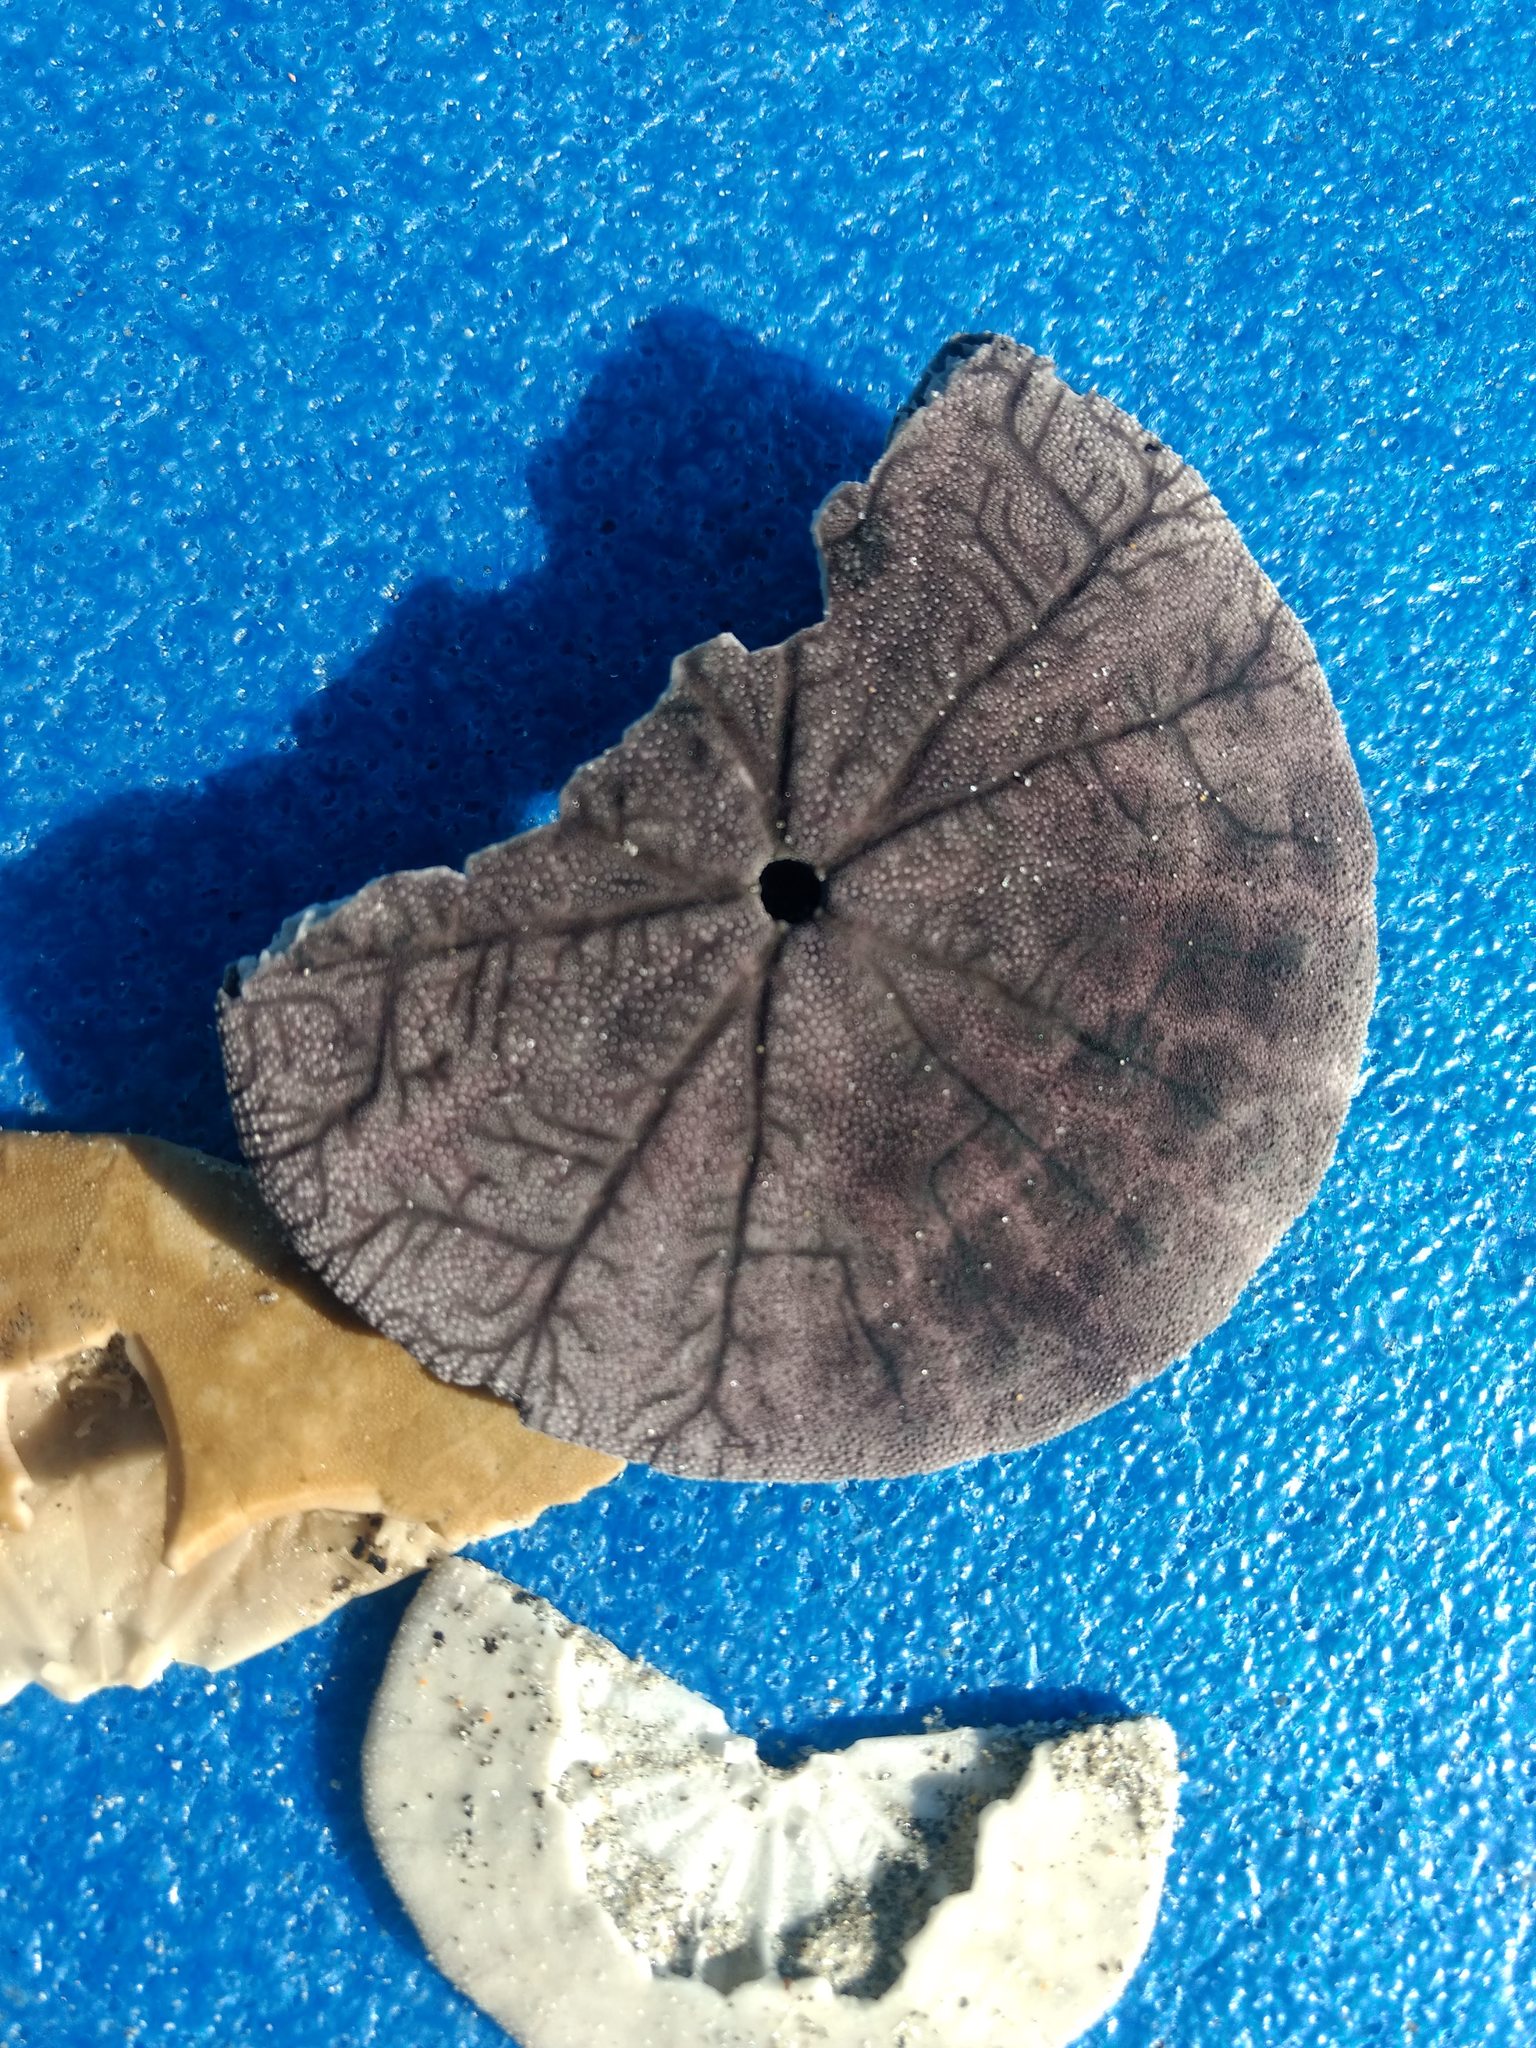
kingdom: Animalia
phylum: Echinodermata
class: Echinoidea
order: Echinolampadacea
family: Dendrasteridae
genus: Dendraster
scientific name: Dendraster excentricus
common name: Eccentric sand dollar sea urchin
